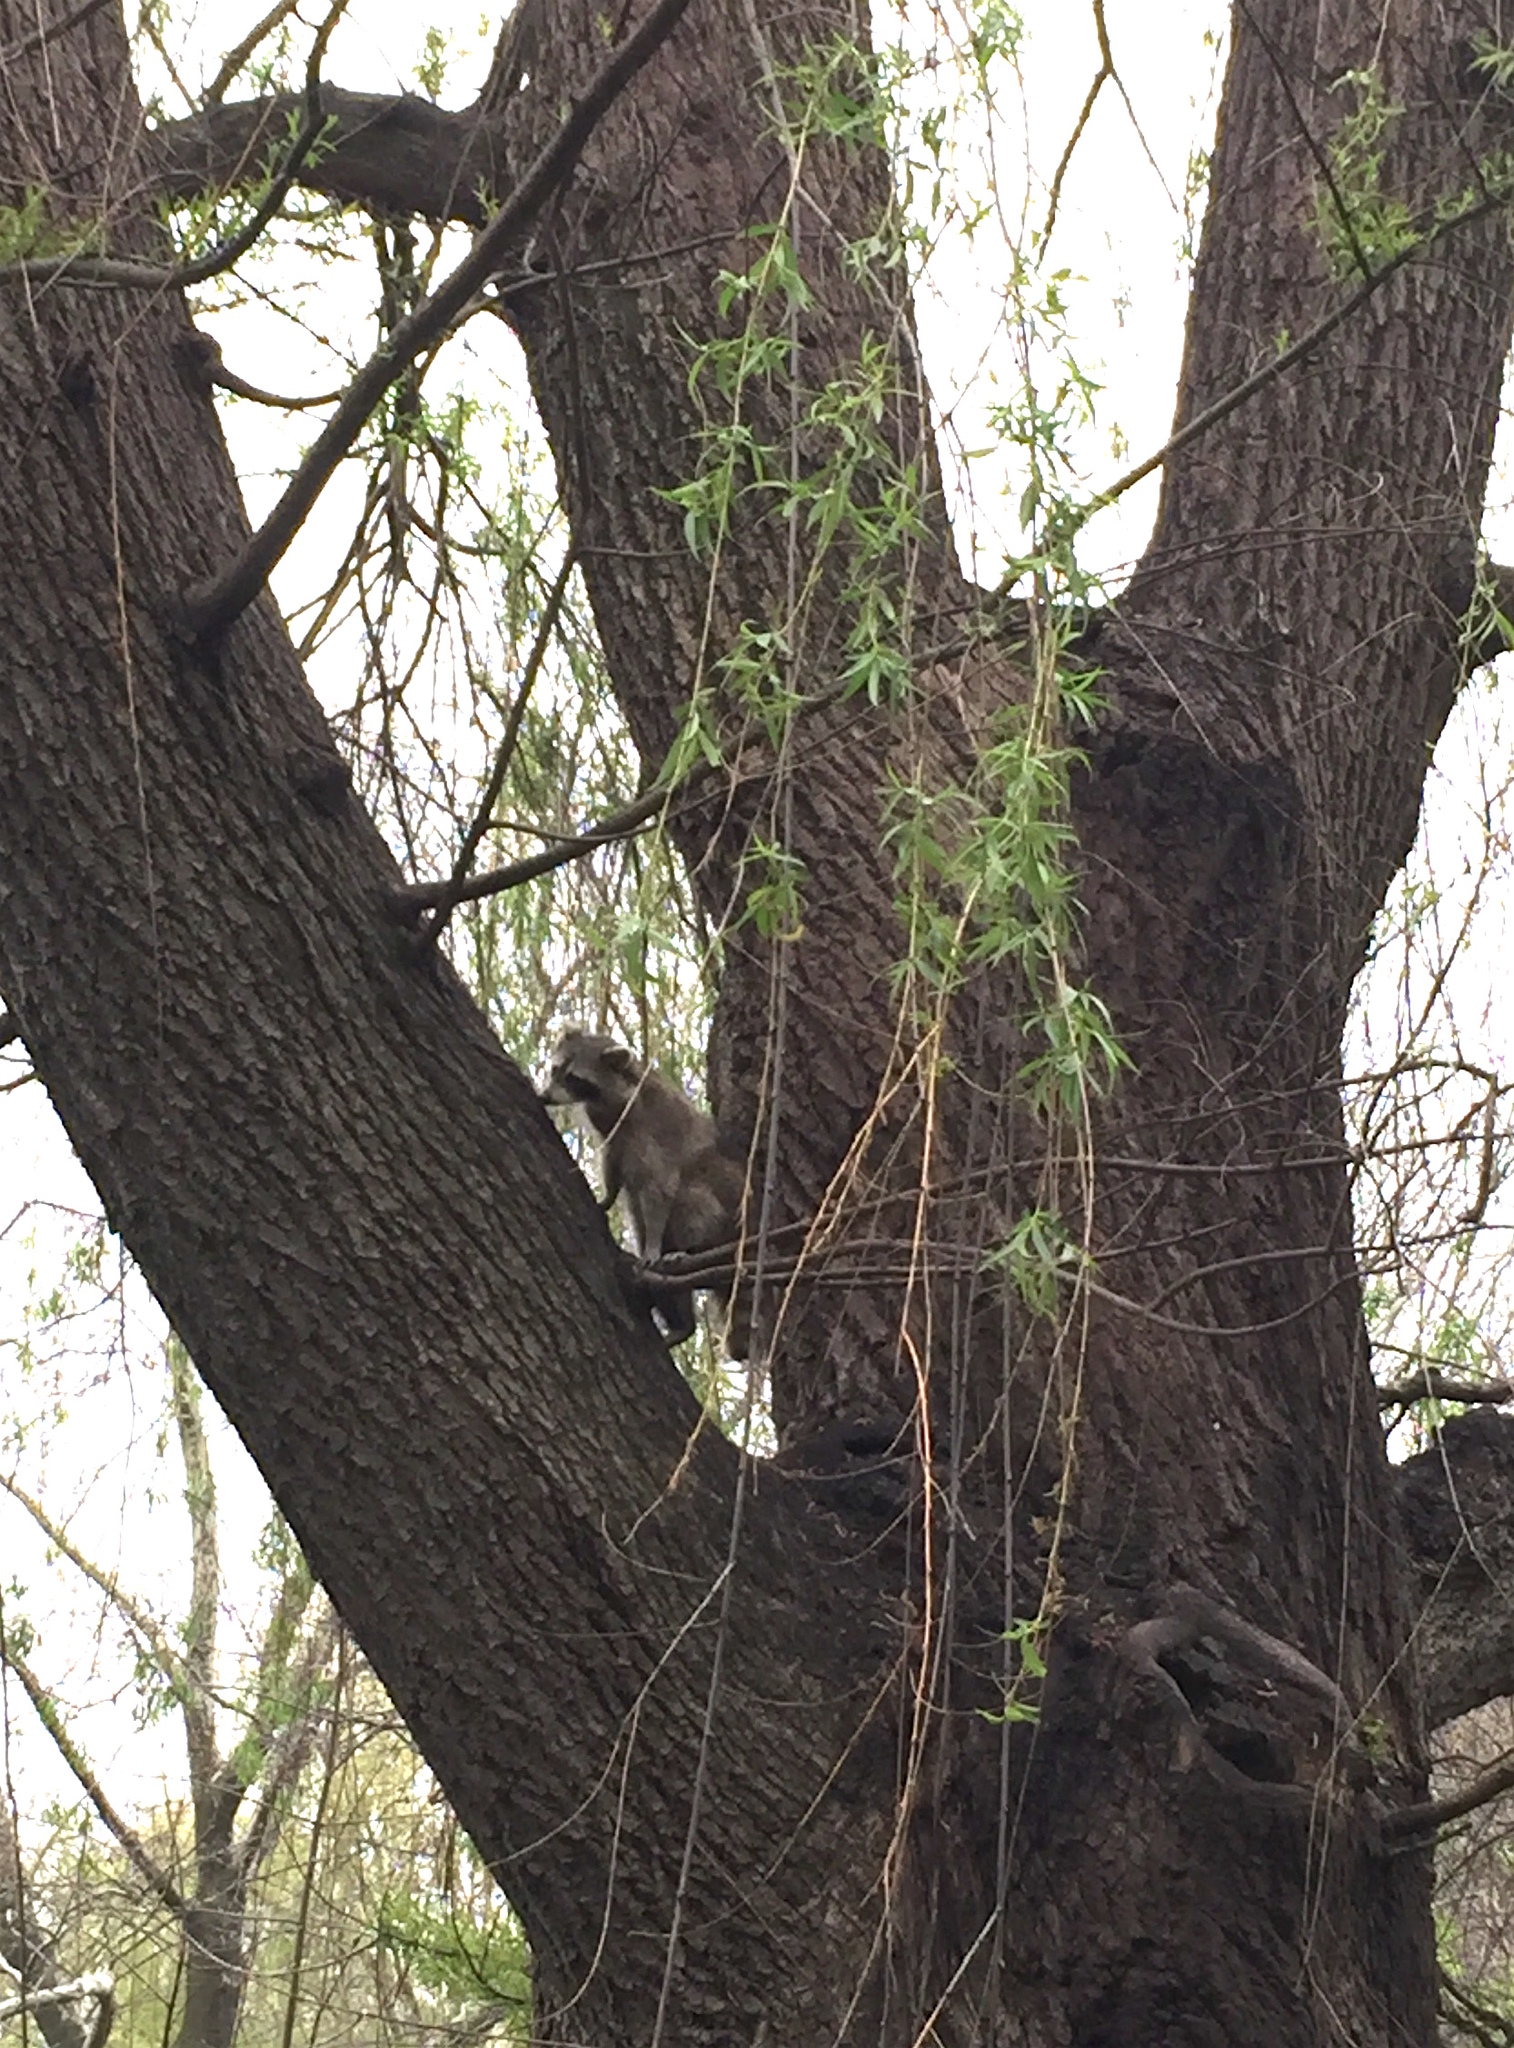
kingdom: Animalia
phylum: Chordata
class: Mammalia
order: Carnivora
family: Procyonidae
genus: Procyon
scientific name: Procyon lotor
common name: Raccoon
